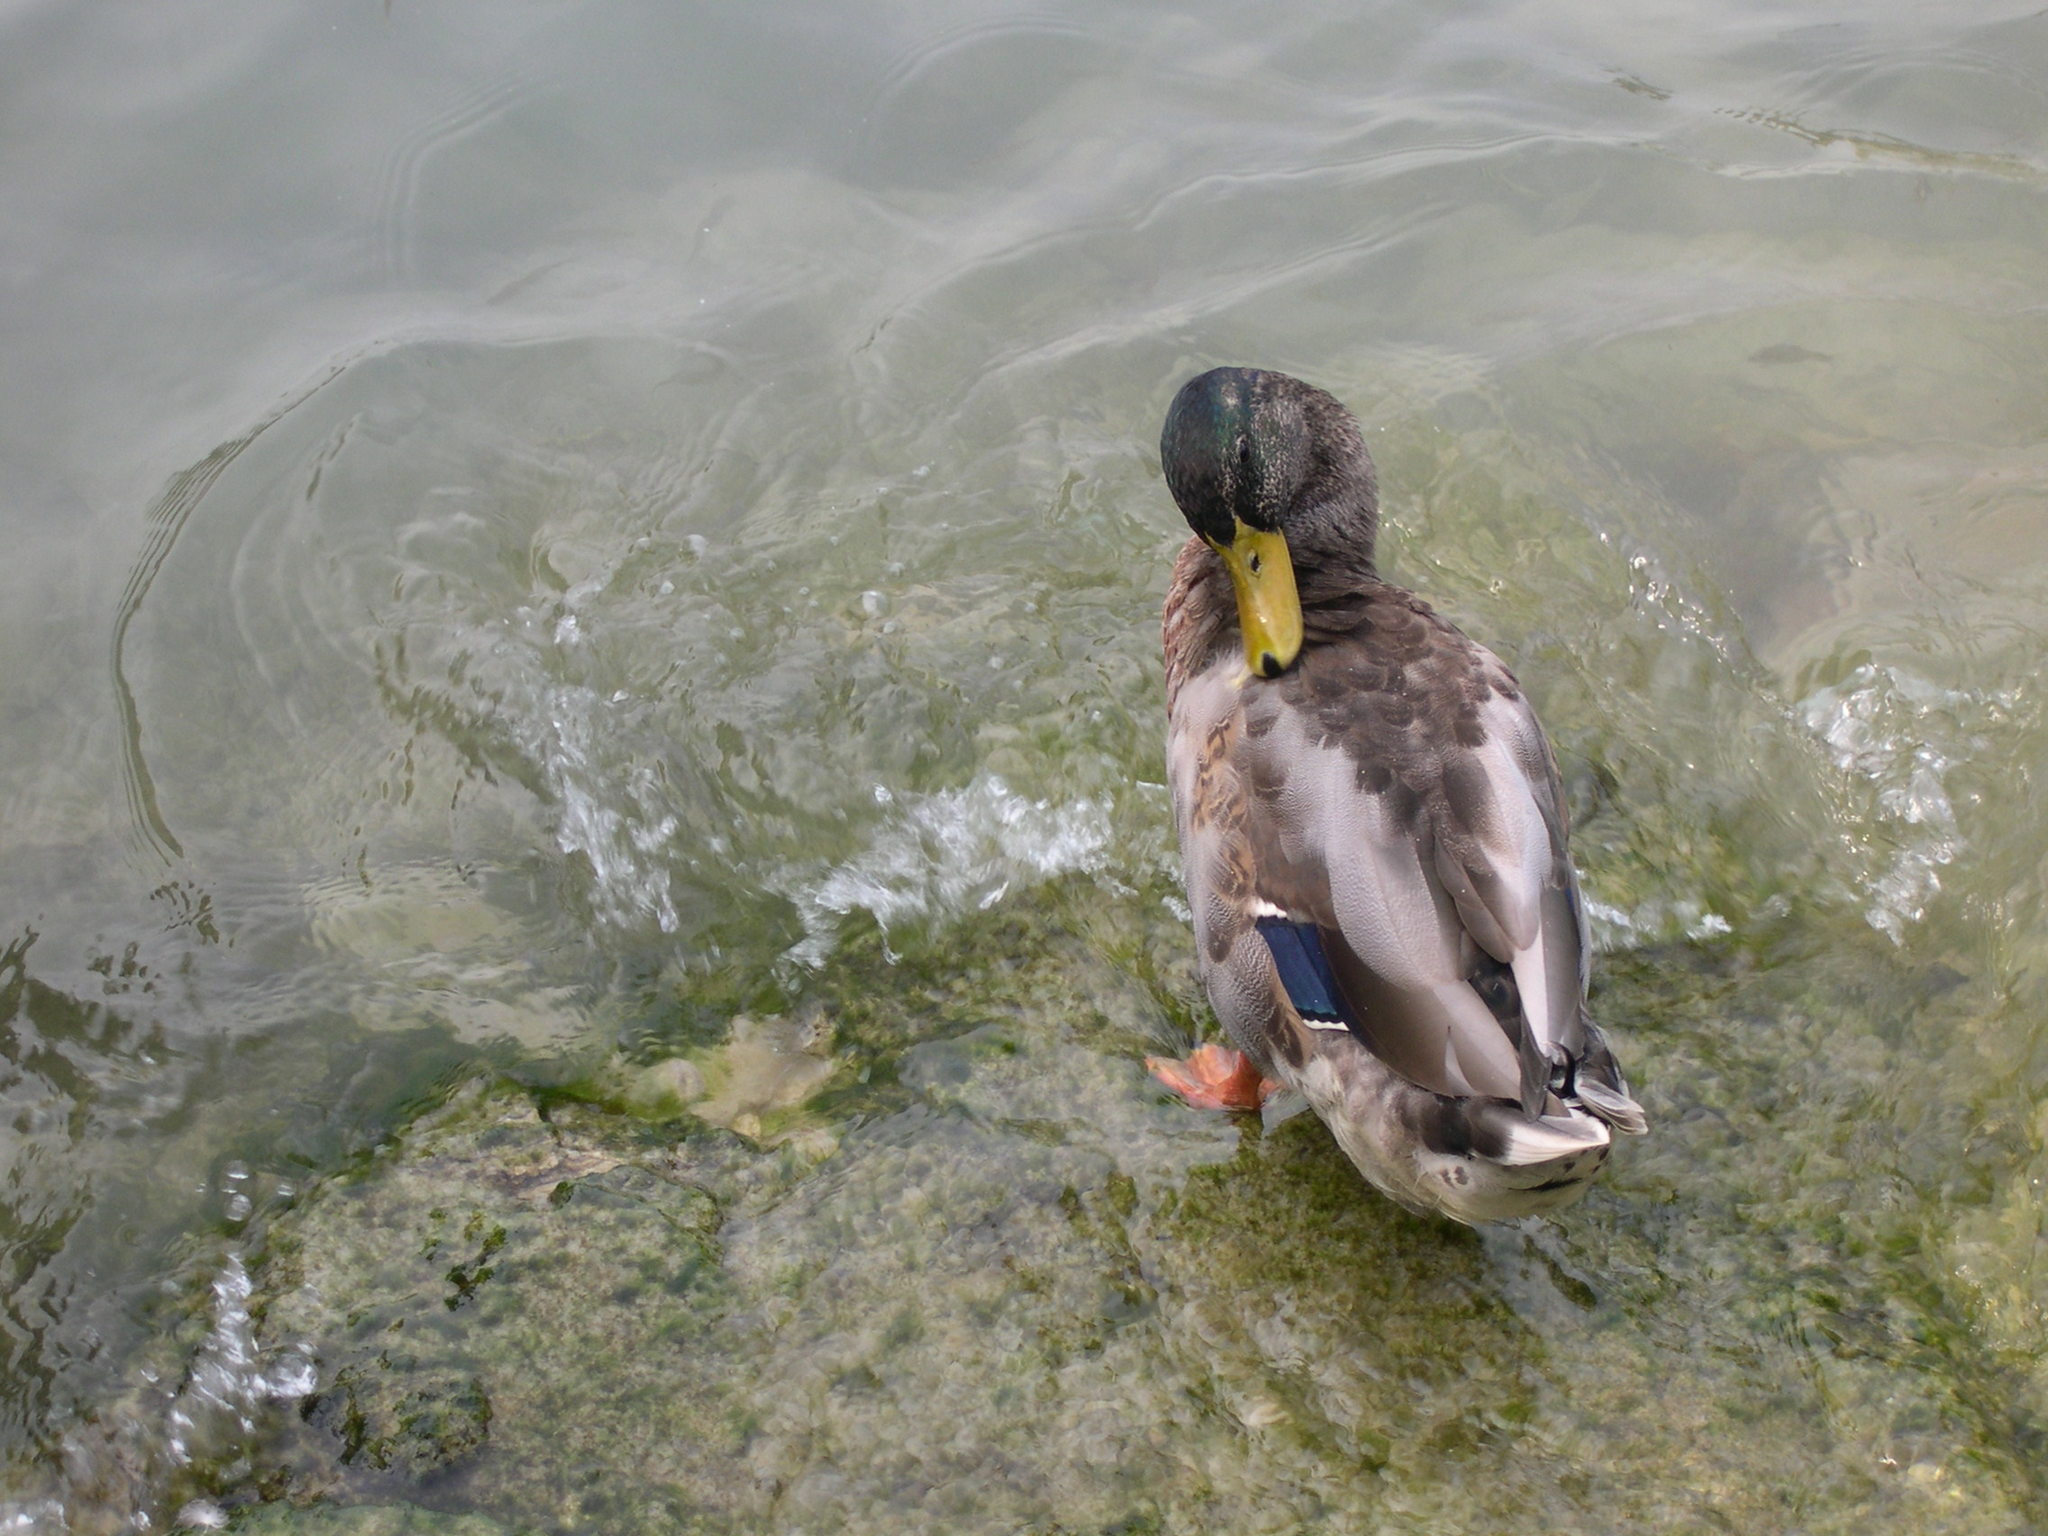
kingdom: Animalia
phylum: Chordata
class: Aves
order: Anseriformes
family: Anatidae
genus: Anas
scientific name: Anas platyrhynchos
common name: Mallard
